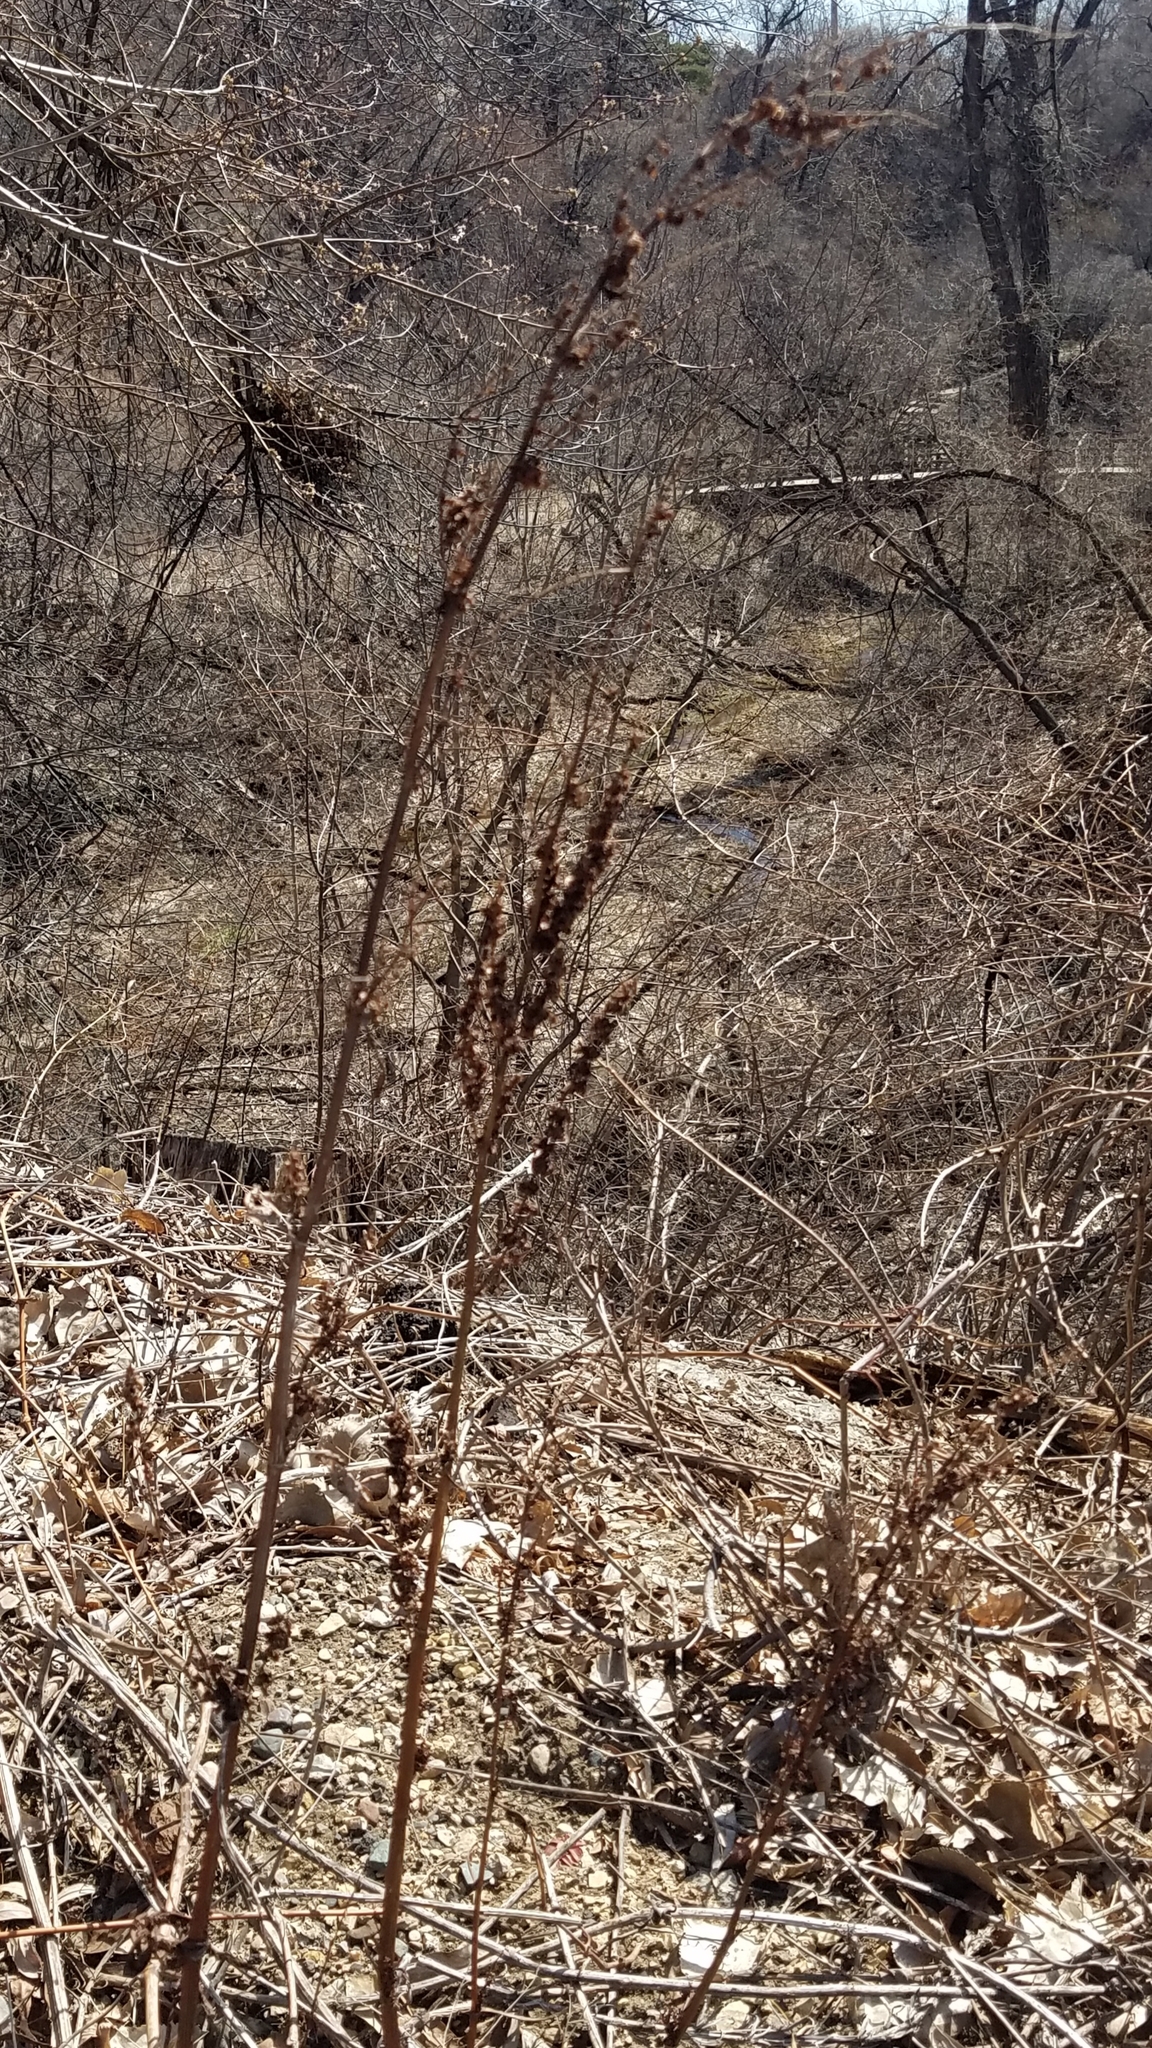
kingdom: Plantae
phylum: Tracheophyta
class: Magnoliopsida
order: Caryophyllales
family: Polygonaceae
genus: Rumex
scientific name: Rumex crispus
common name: Curled dock
